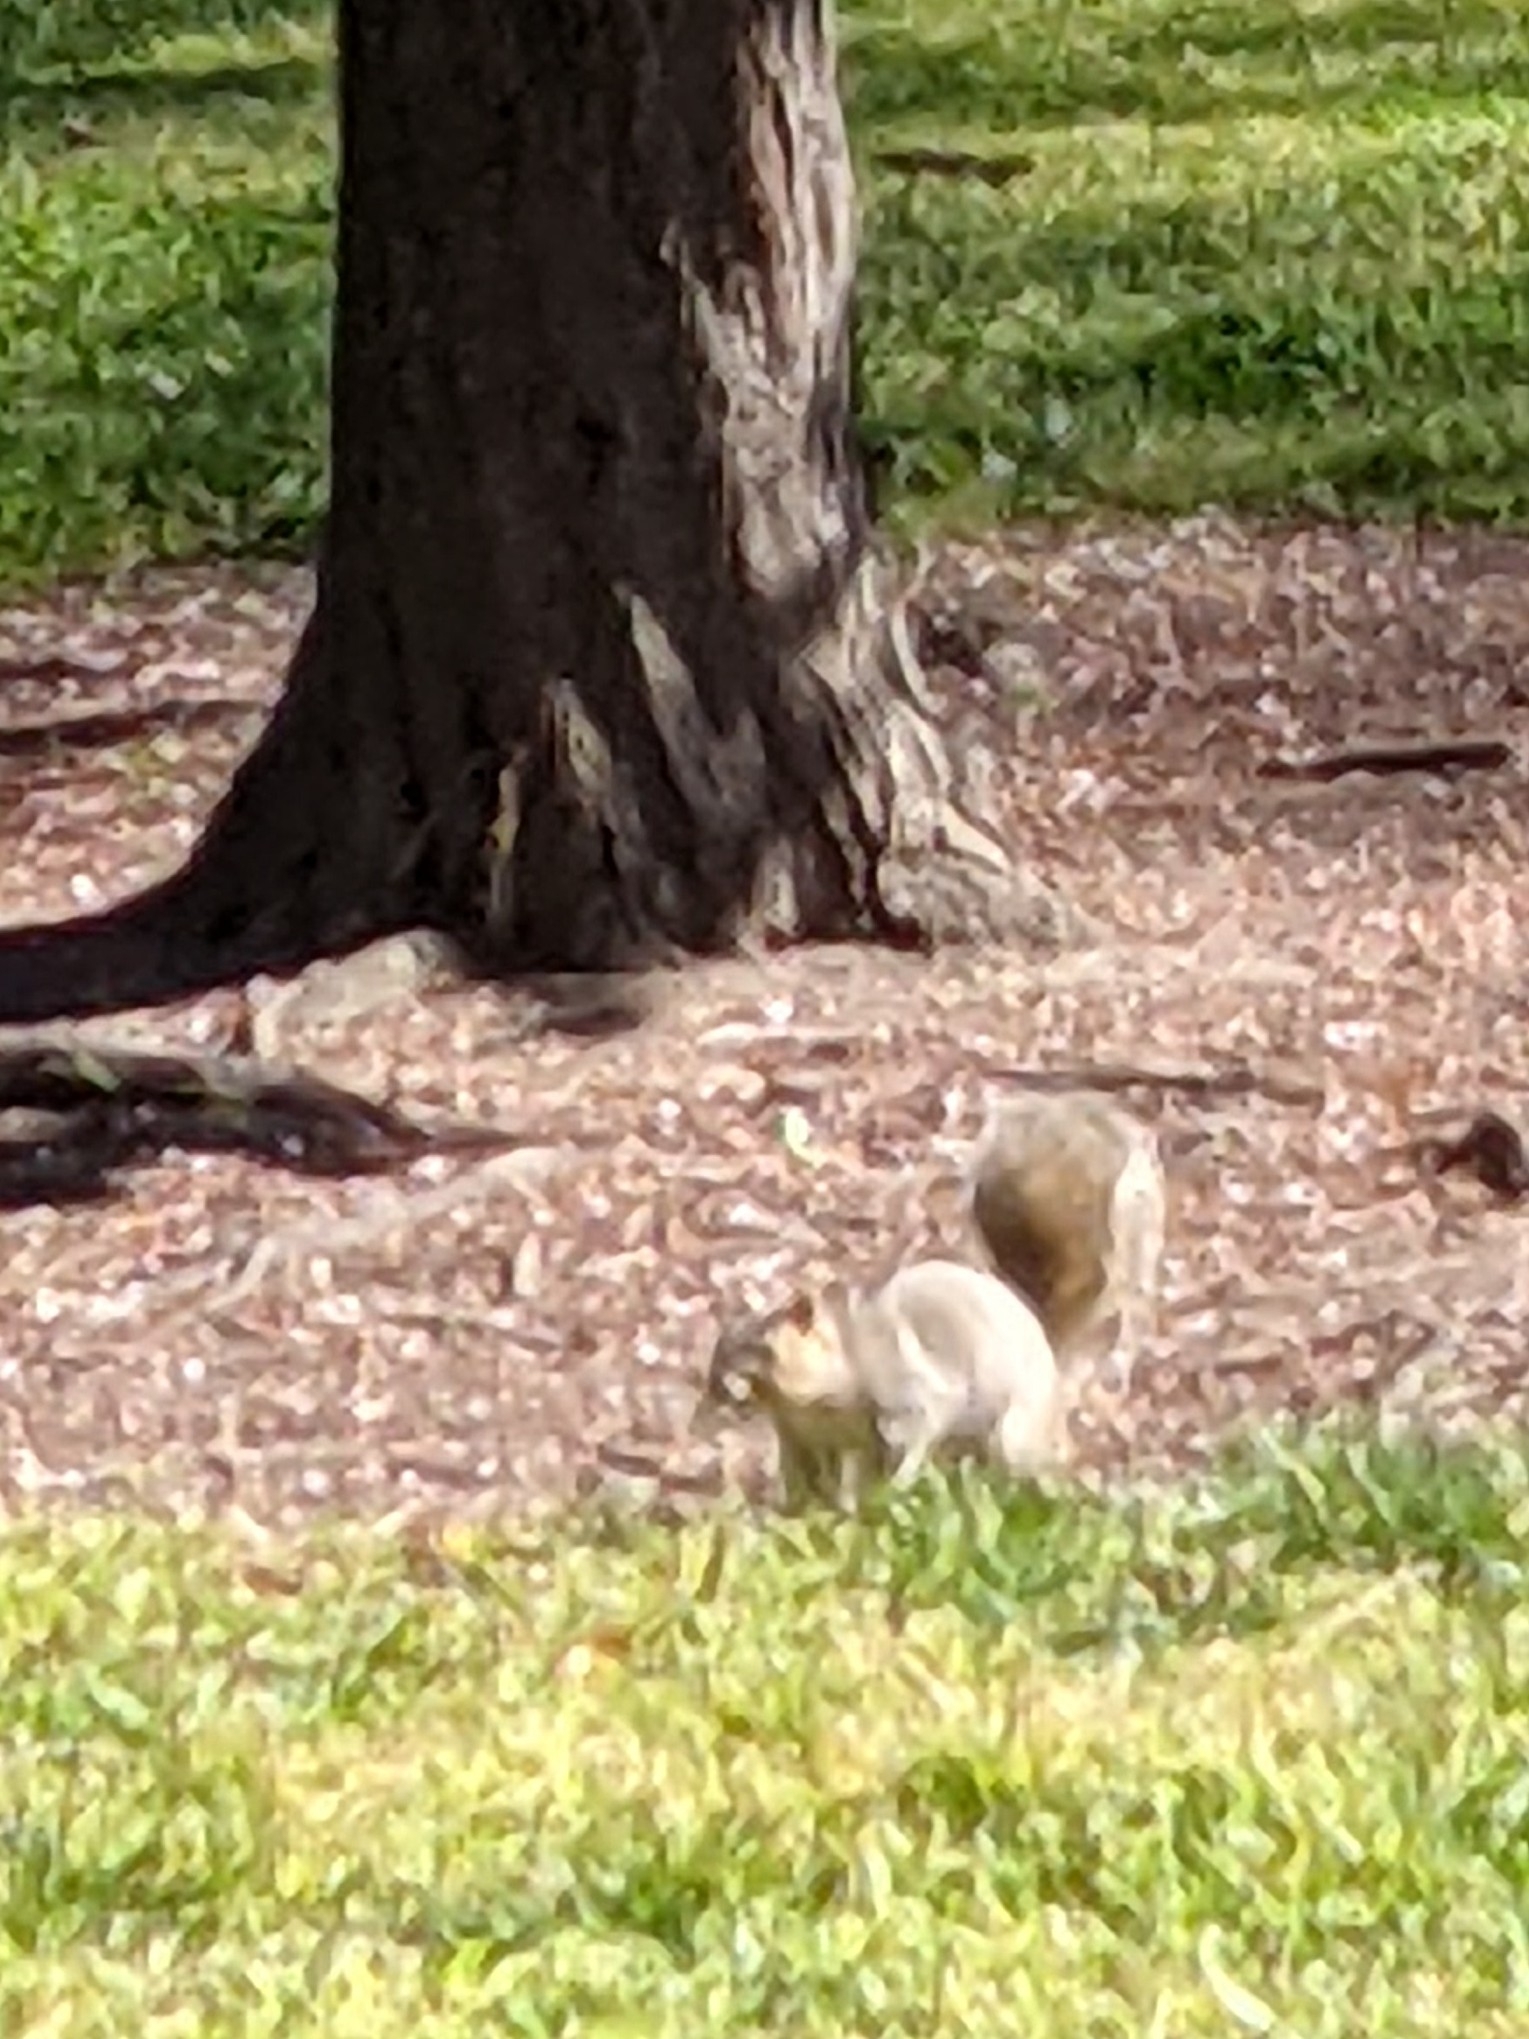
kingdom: Animalia
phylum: Chordata
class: Mammalia
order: Rodentia
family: Sciuridae
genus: Sciurus
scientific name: Sciurus carolinensis
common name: Eastern gray squirrel
